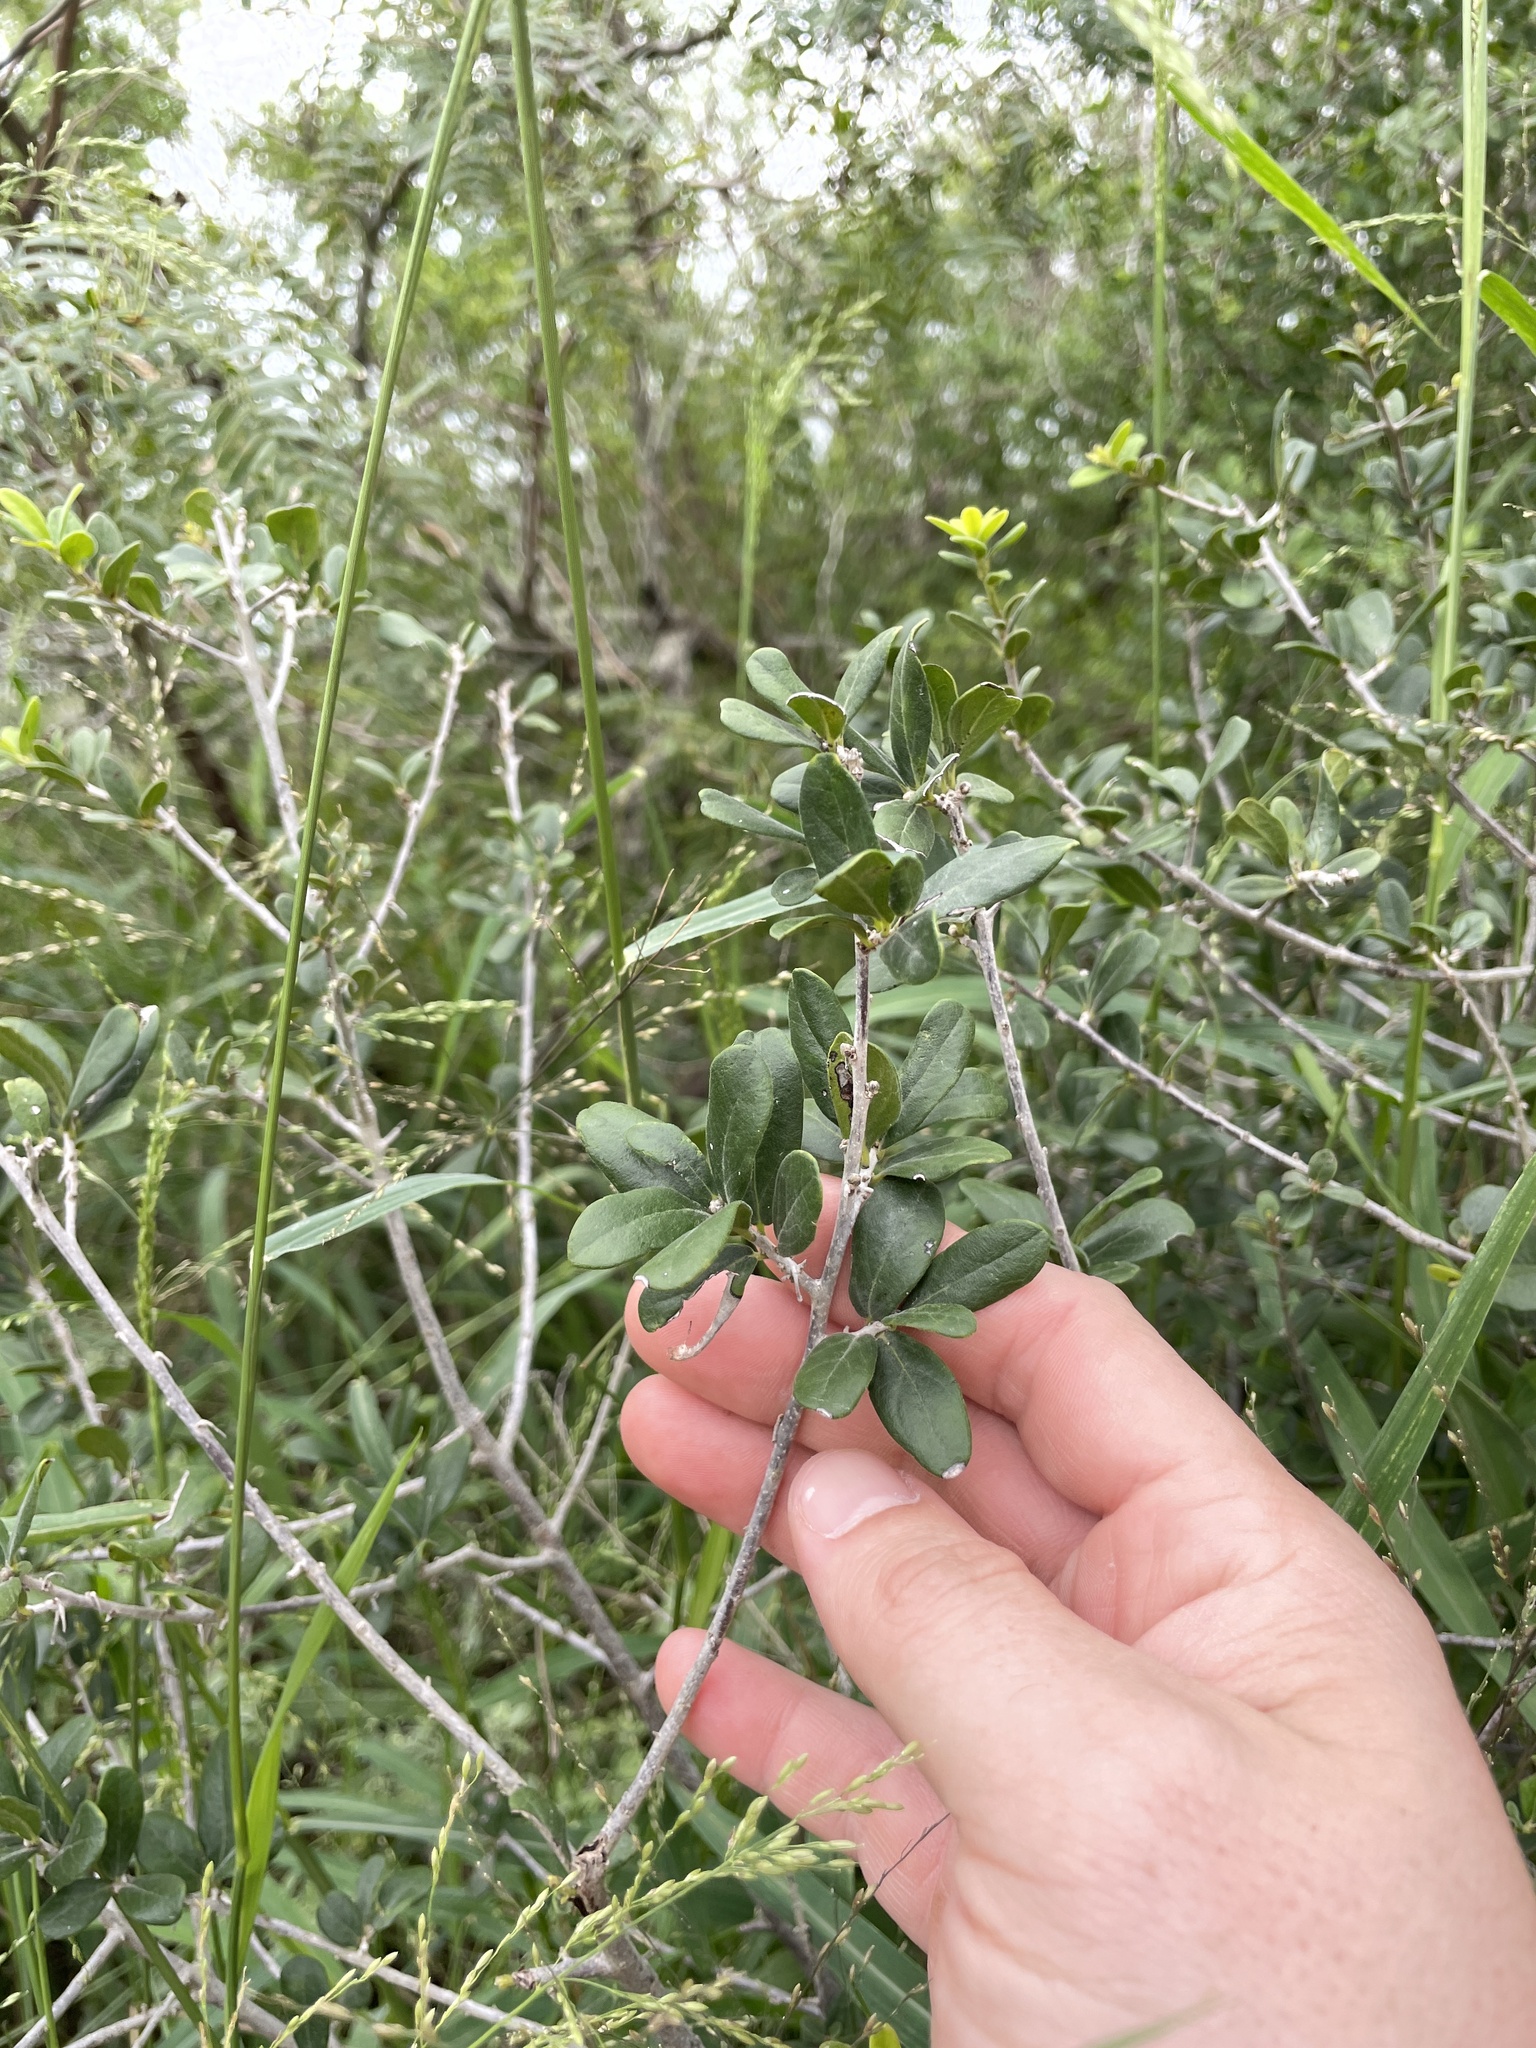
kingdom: Plantae
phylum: Tracheophyta
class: Magnoliopsida
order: Ericales
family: Ebenaceae
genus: Diospyros
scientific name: Diospyros texana
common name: Texas persimmon
